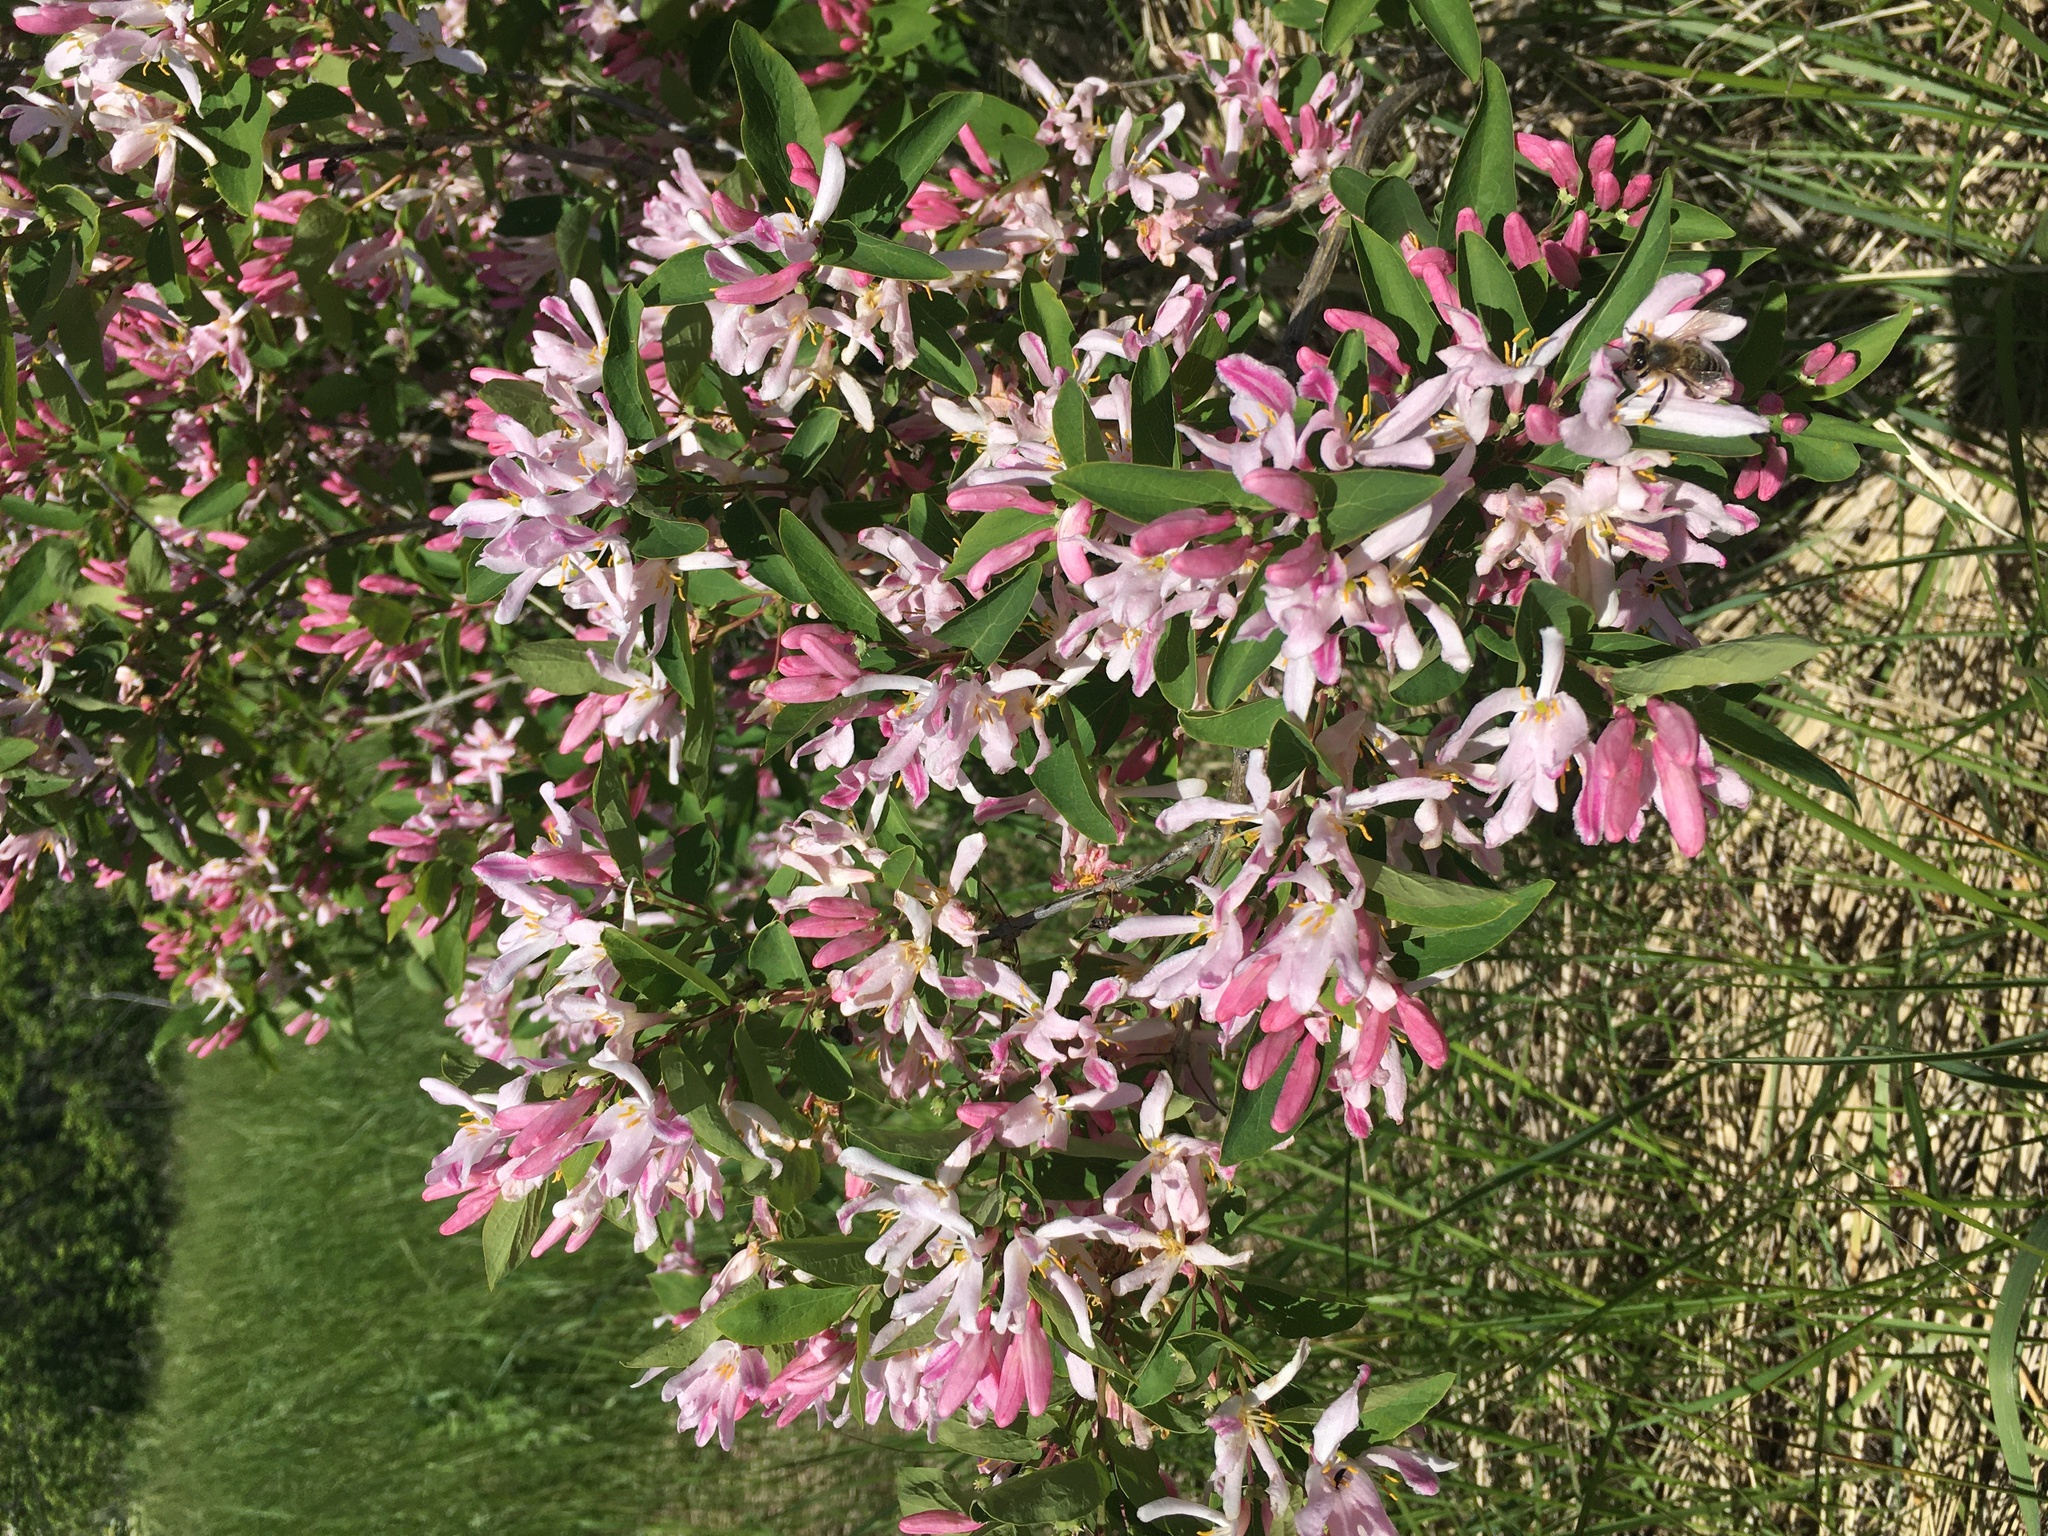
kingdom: Plantae
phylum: Tracheophyta
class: Magnoliopsida
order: Dipsacales
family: Caprifoliaceae
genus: Lonicera
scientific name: Lonicera tatarica
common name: Tatarian honeysuckle
